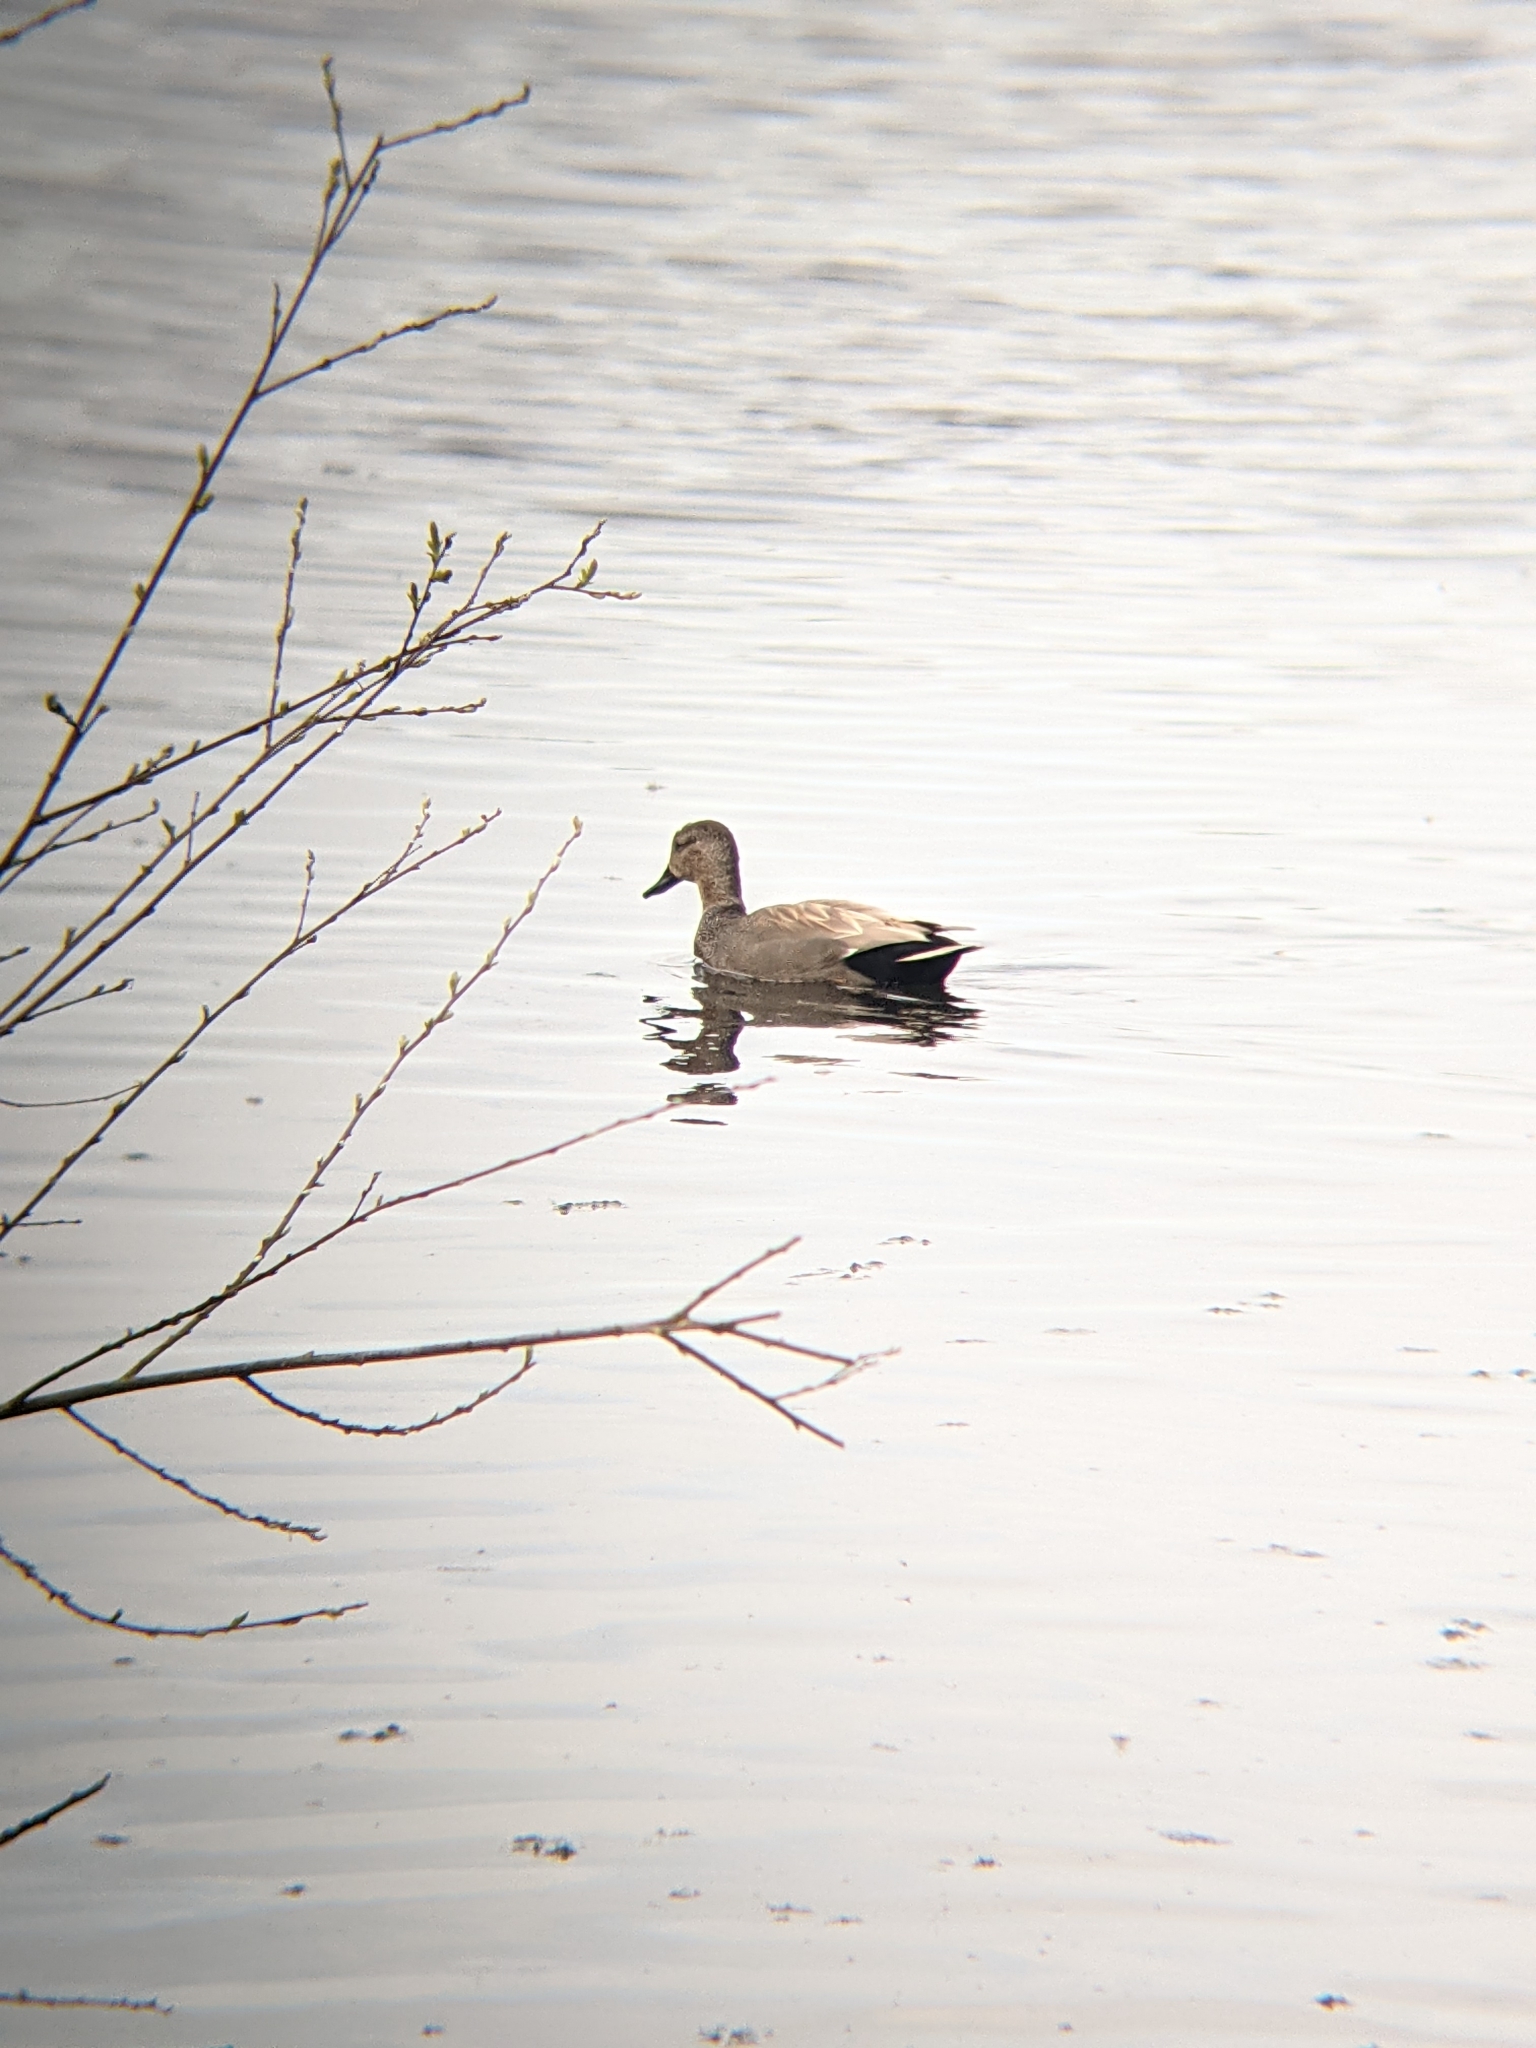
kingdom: Animalia
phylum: Chordata
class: Aves
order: Anseriformes
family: Anatidae
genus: Mareca
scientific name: Mareca strepera
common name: Gadwall
